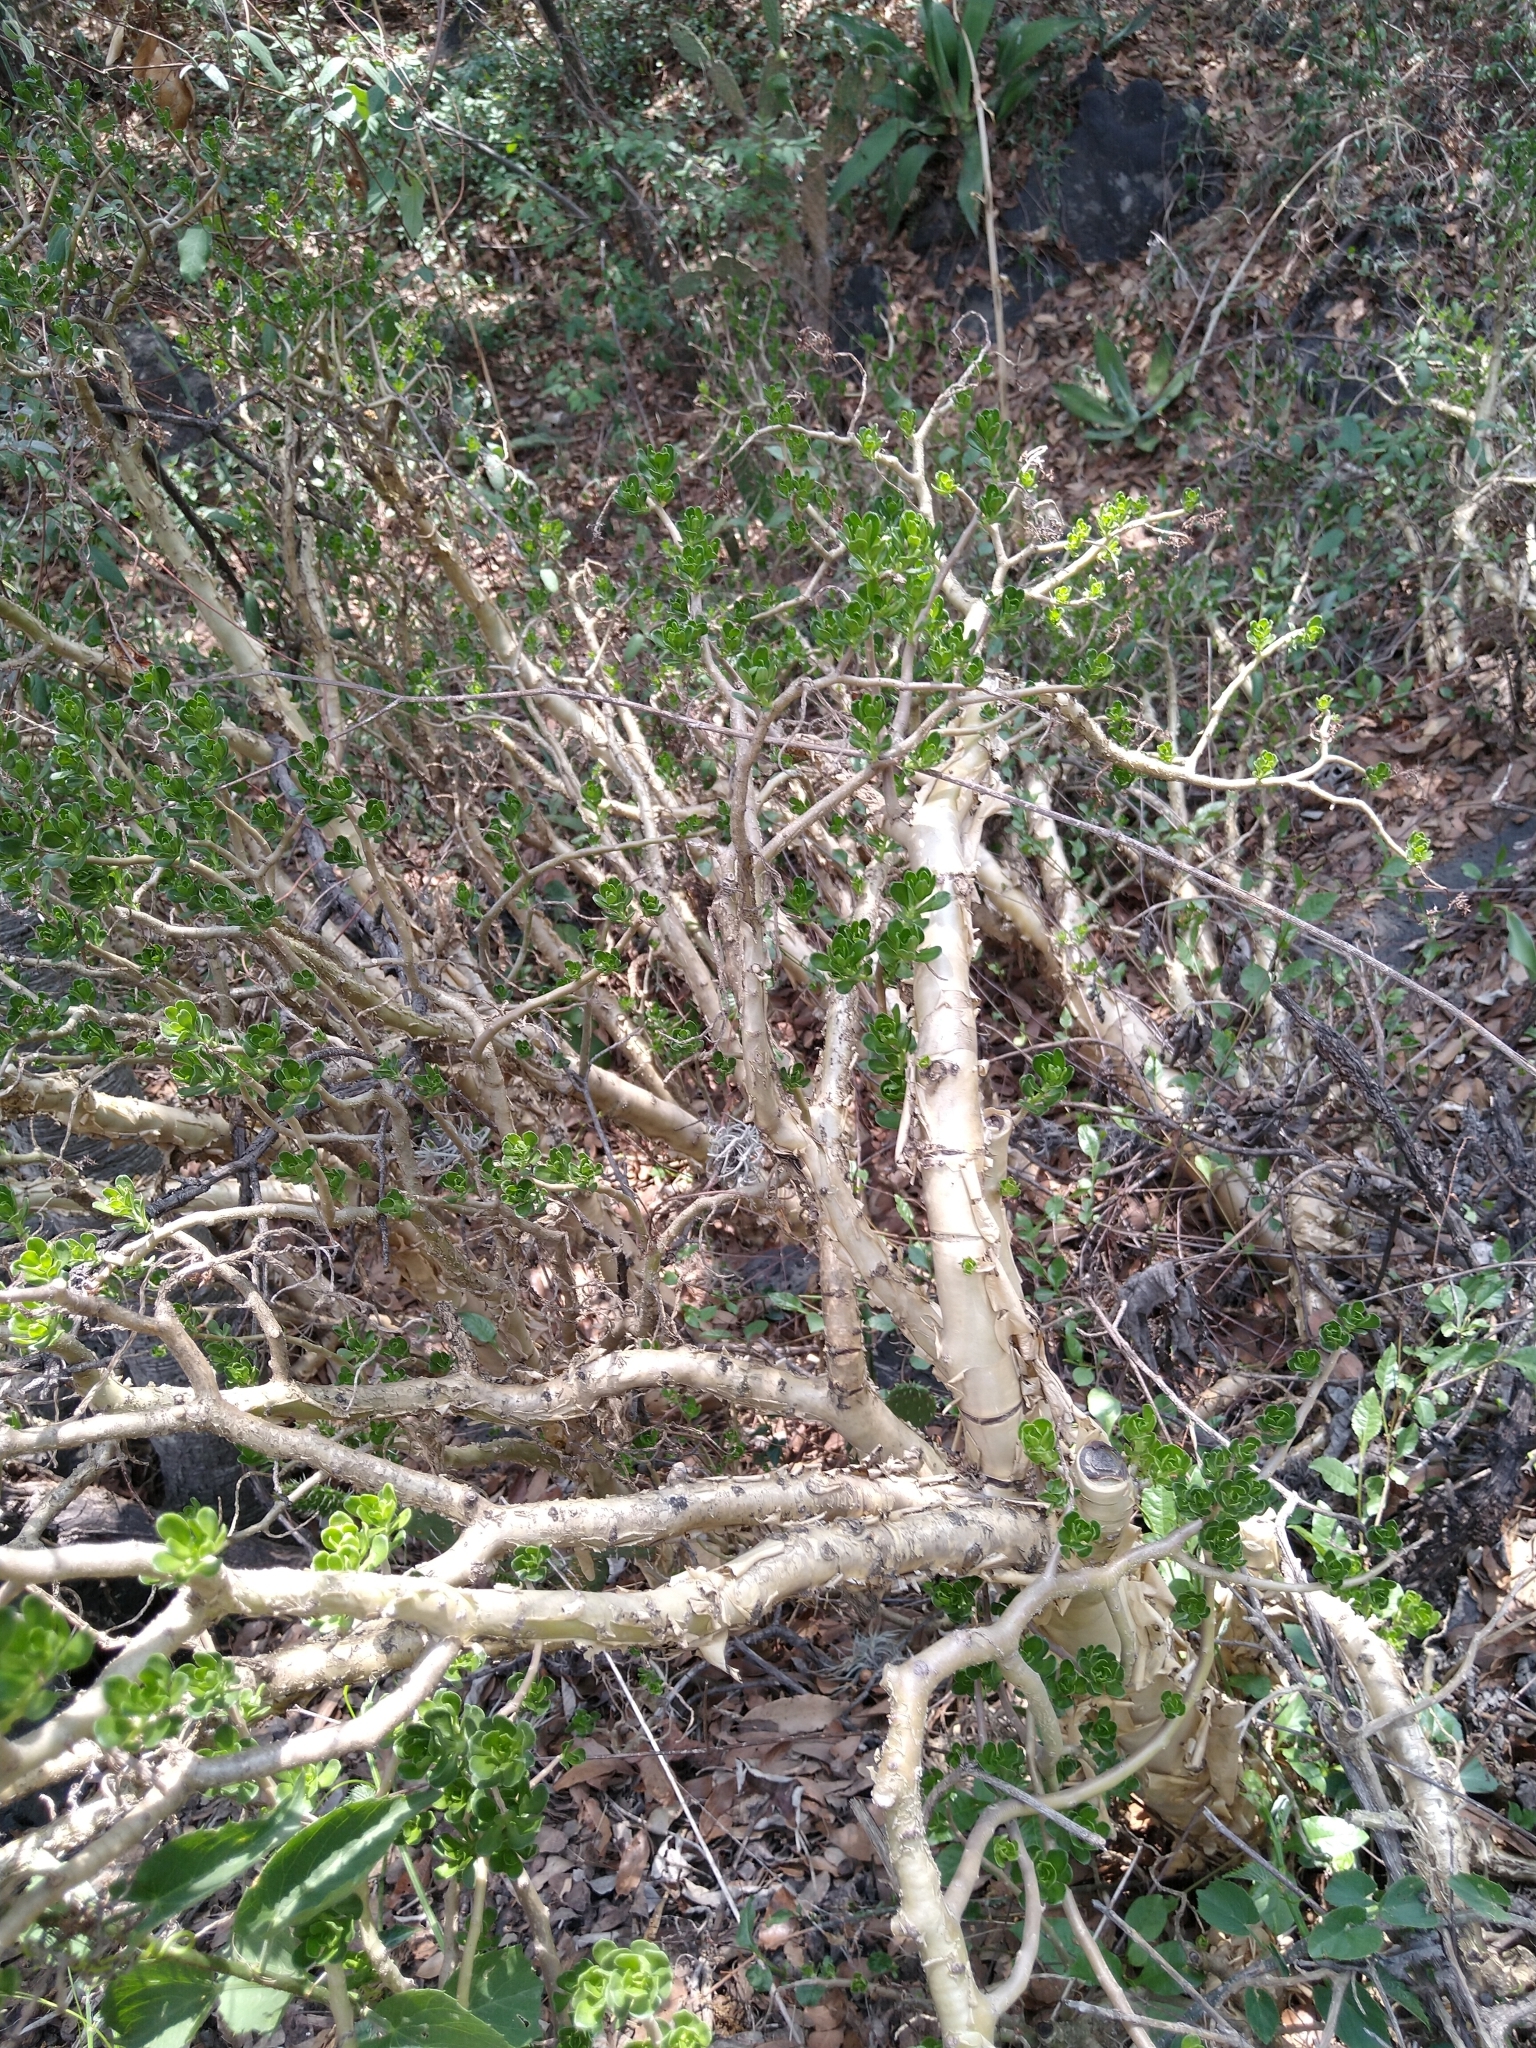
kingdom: Plantae
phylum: Tracheophyta
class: Magnoliopsida
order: Saxifragales
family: Crassulaceae
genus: Sedum
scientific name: Sedum oxypetalum
